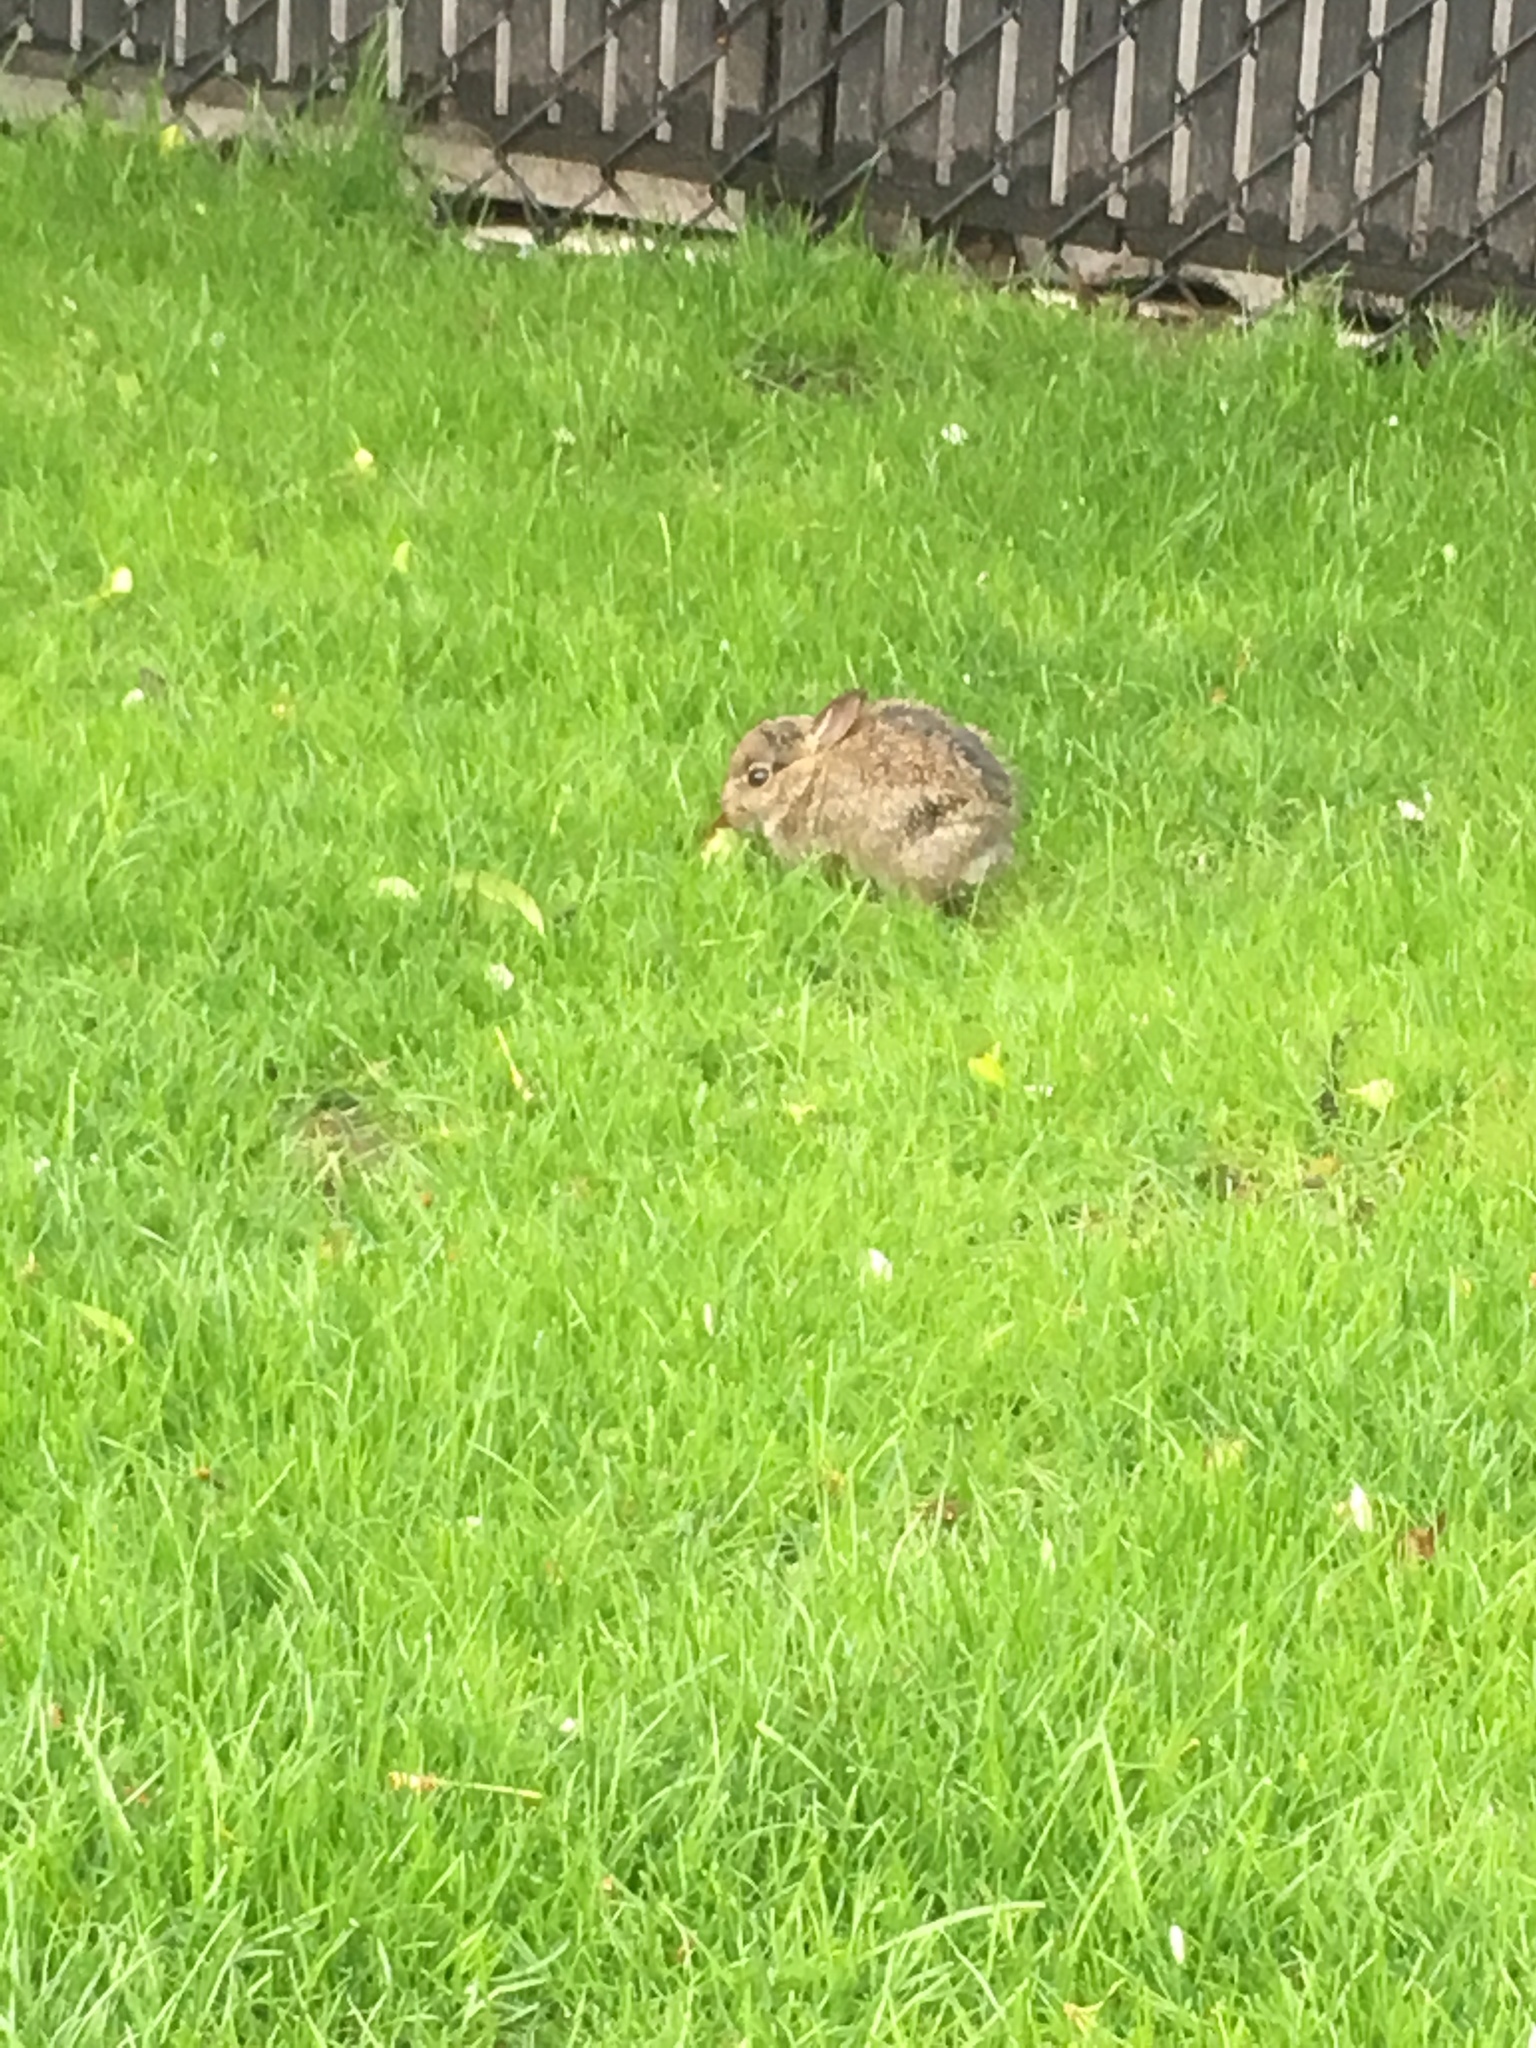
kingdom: Animalia
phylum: Chordata
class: Mammalia
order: Lagomorpha
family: Leporidae
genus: Sylvilagus
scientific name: Sylvilagus floridanus
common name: Eastern cottontail
